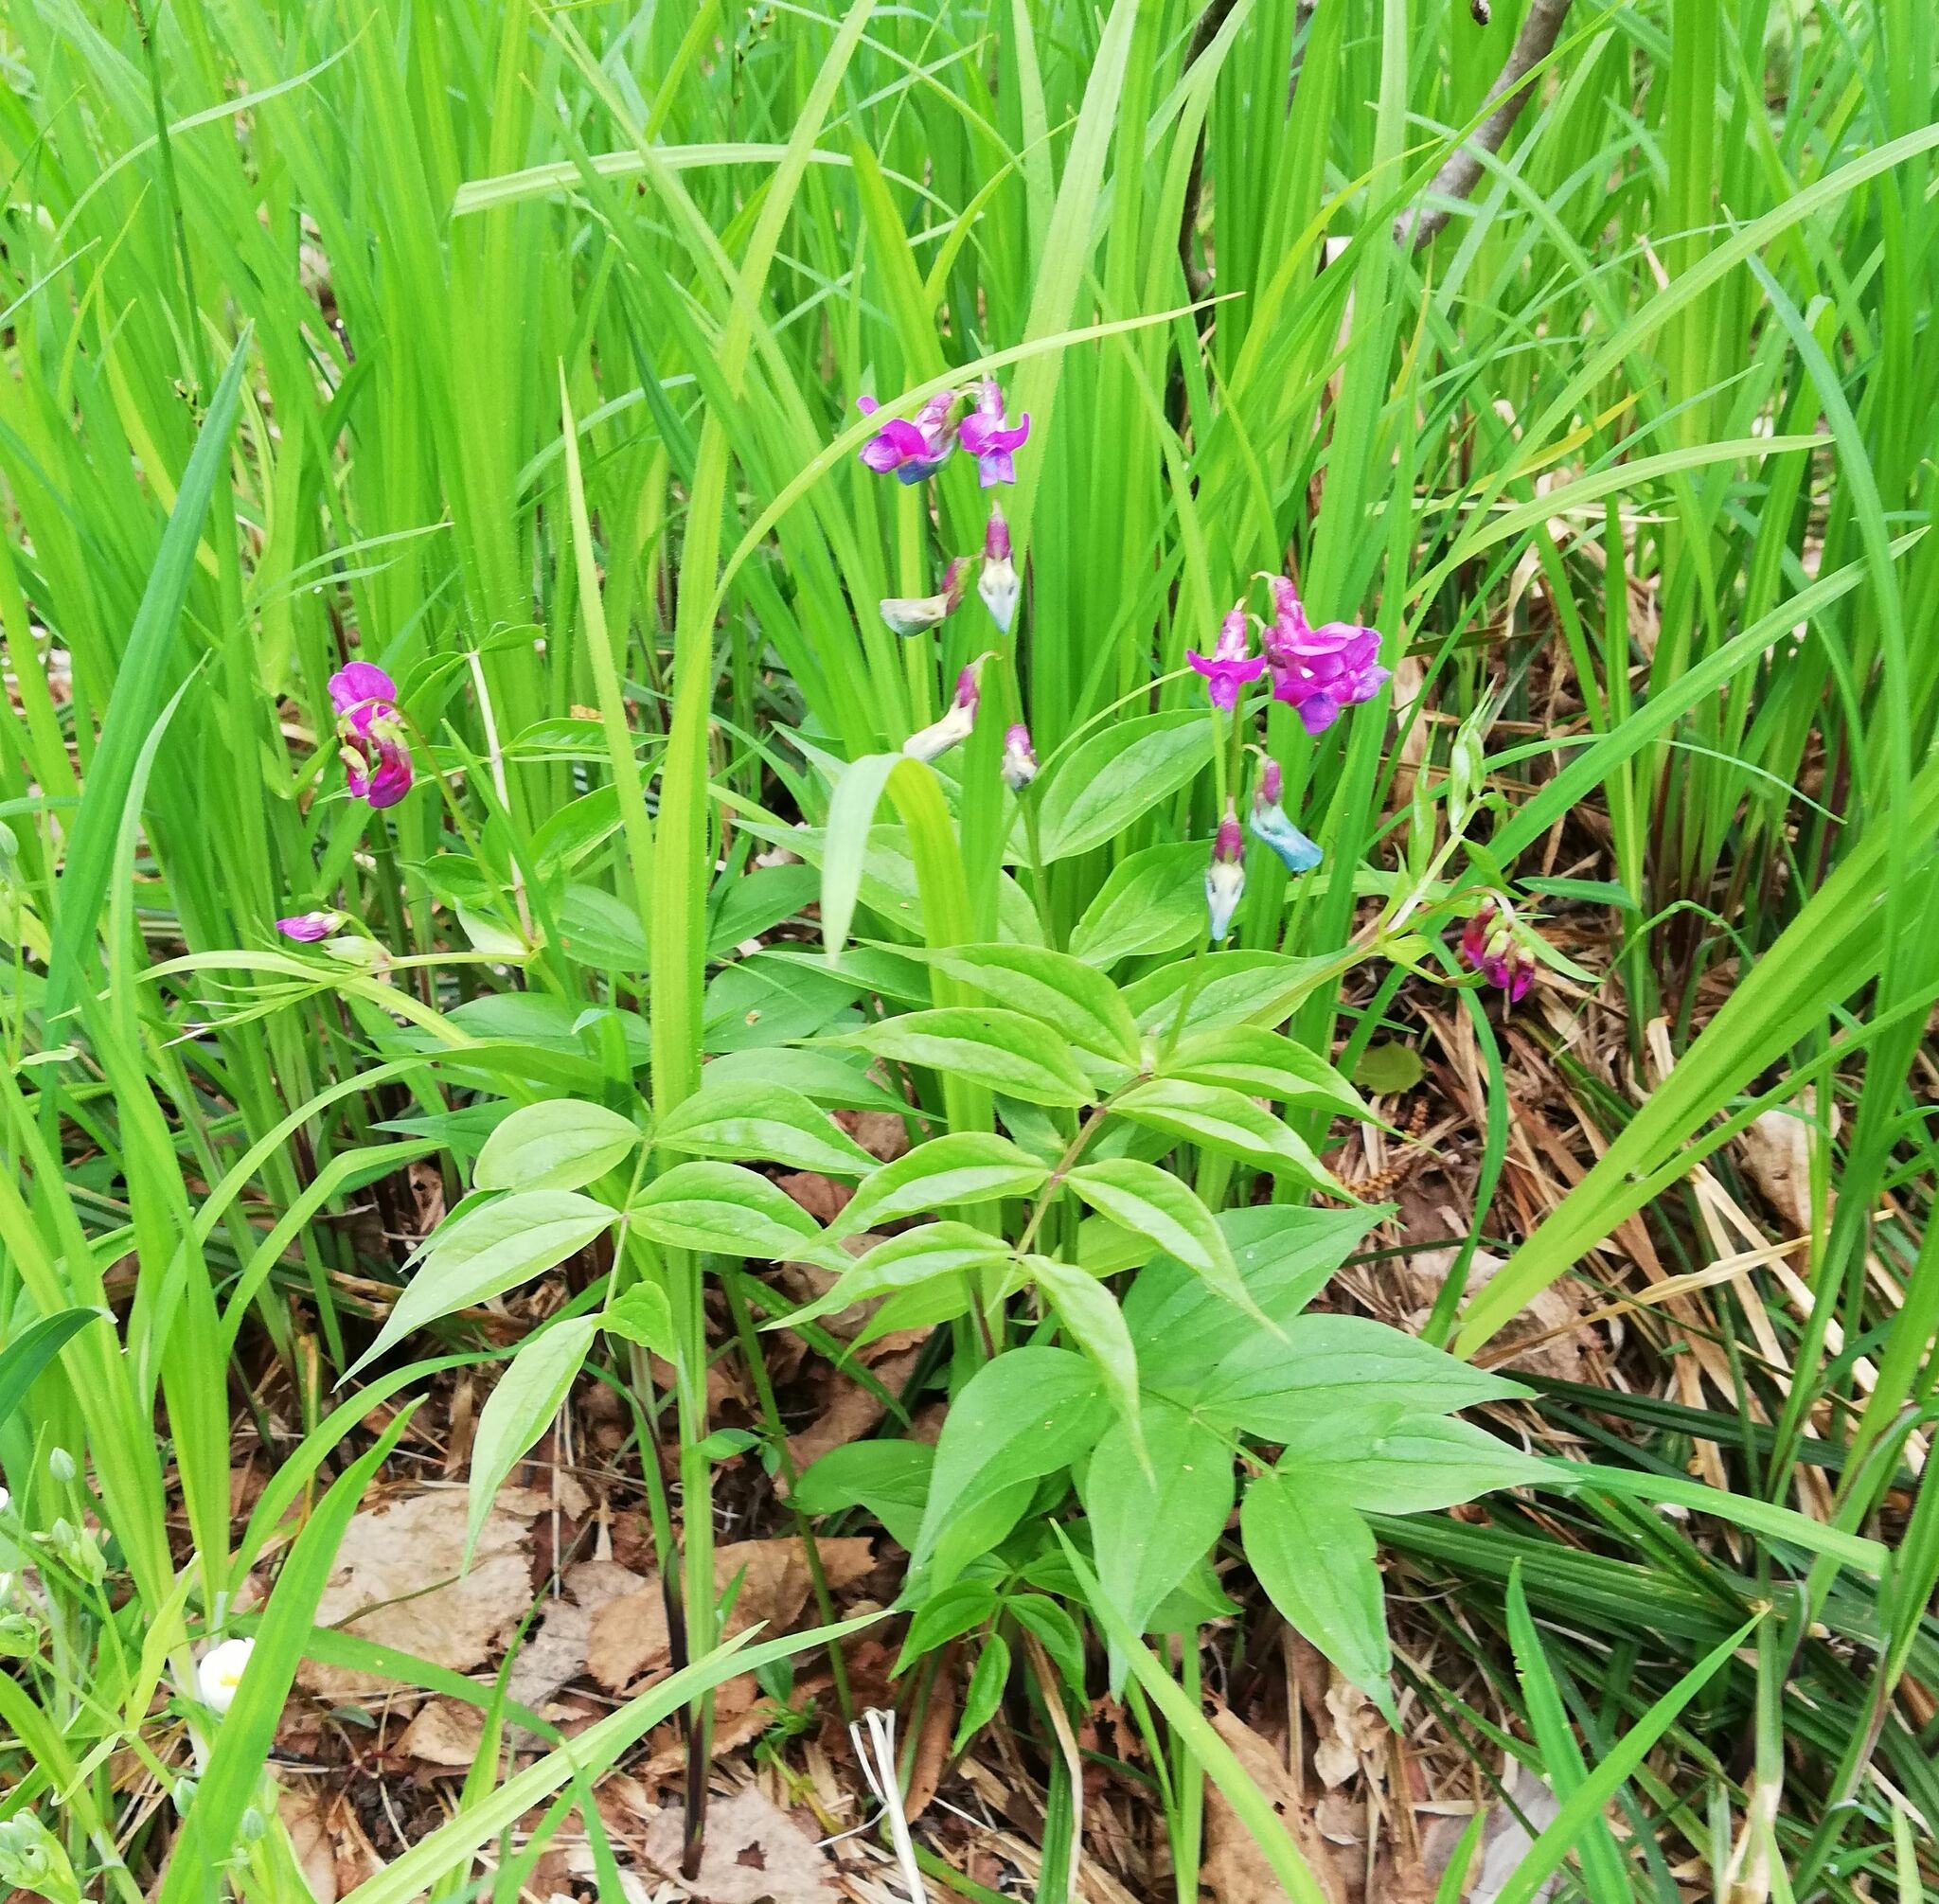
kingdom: Plantae
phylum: Tracheophyta
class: Magnoliopsida
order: Fabales
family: Fabaceae
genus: Lathyrus
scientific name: Lathyrus vernus
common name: Spring pea
